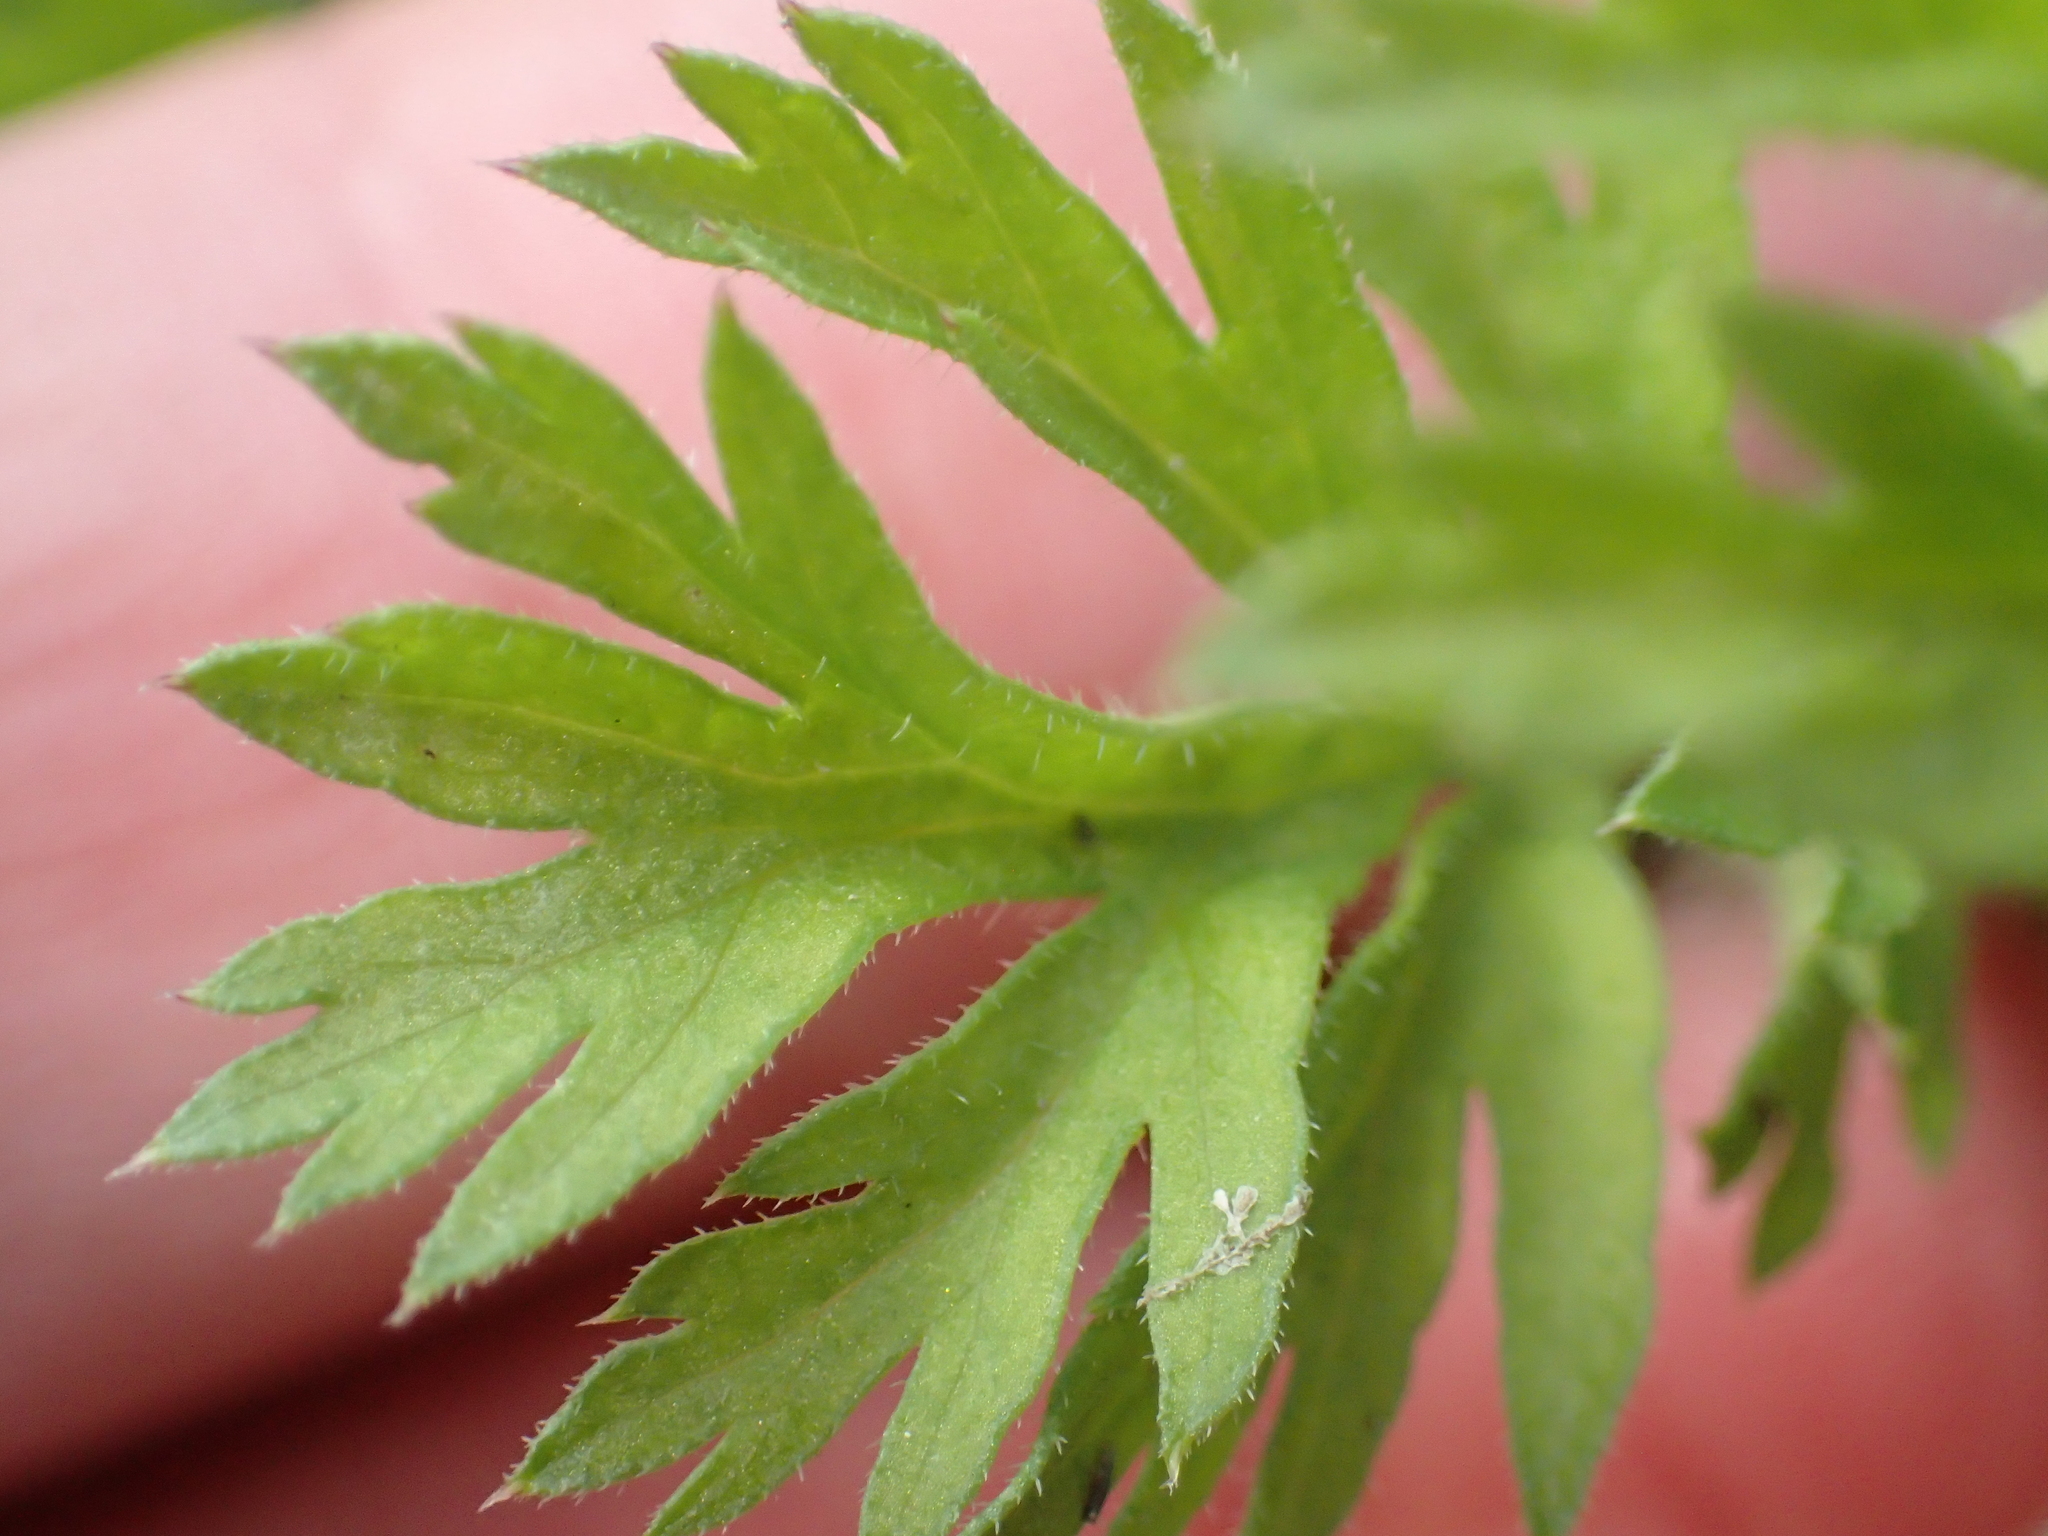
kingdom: Plantae
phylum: Tracheophyta
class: Magnoliopsida
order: Apiales
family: Apiaceae
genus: Daucus
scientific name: Daucus carota
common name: Wild carrot
